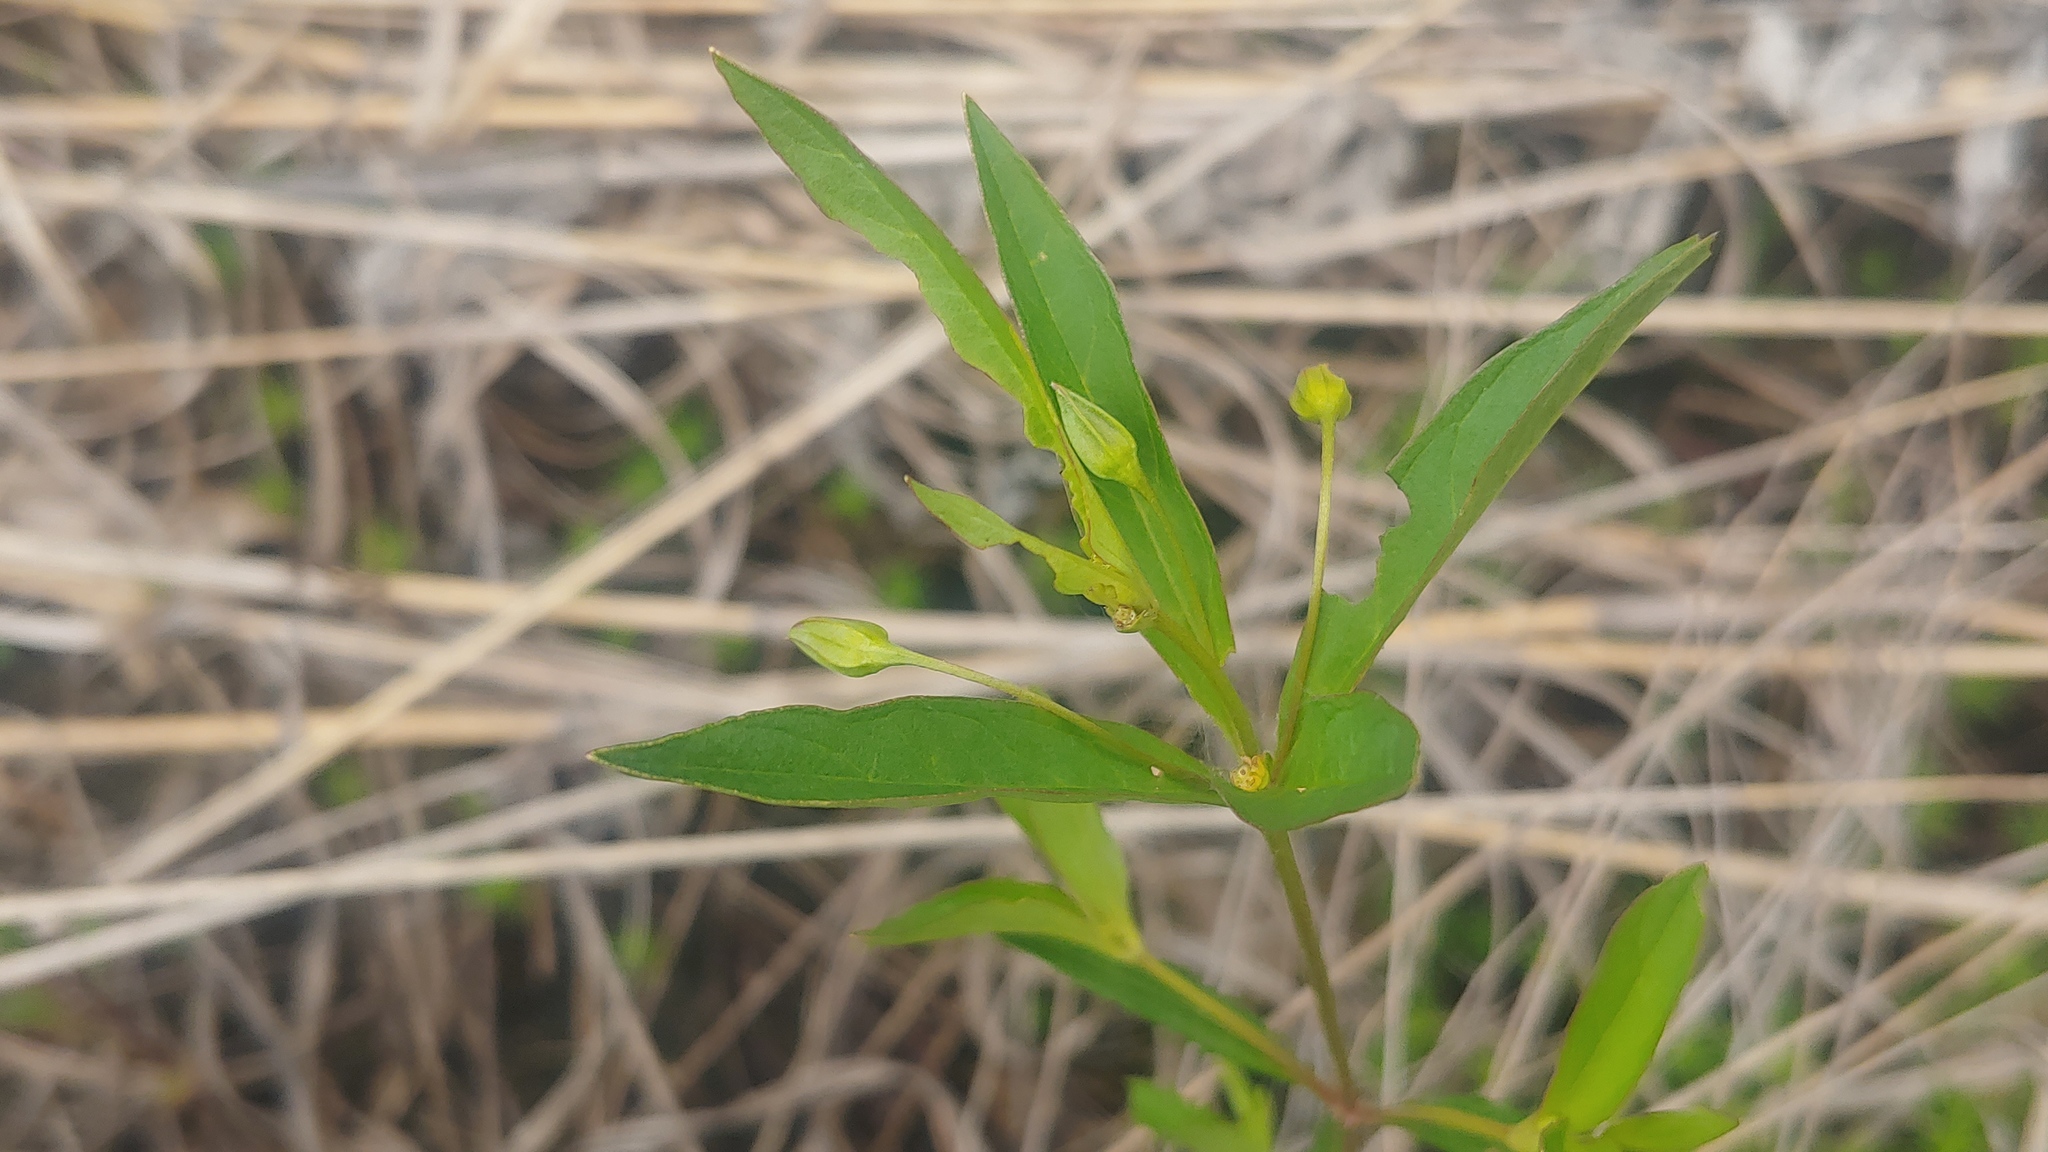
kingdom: Plantae
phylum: Tracheophyta
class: Magnoliopsida
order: Ericales
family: Primulaceae
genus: Lysimachia
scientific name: Lysimachia quadriflora
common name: Four-flowered loosestrife
